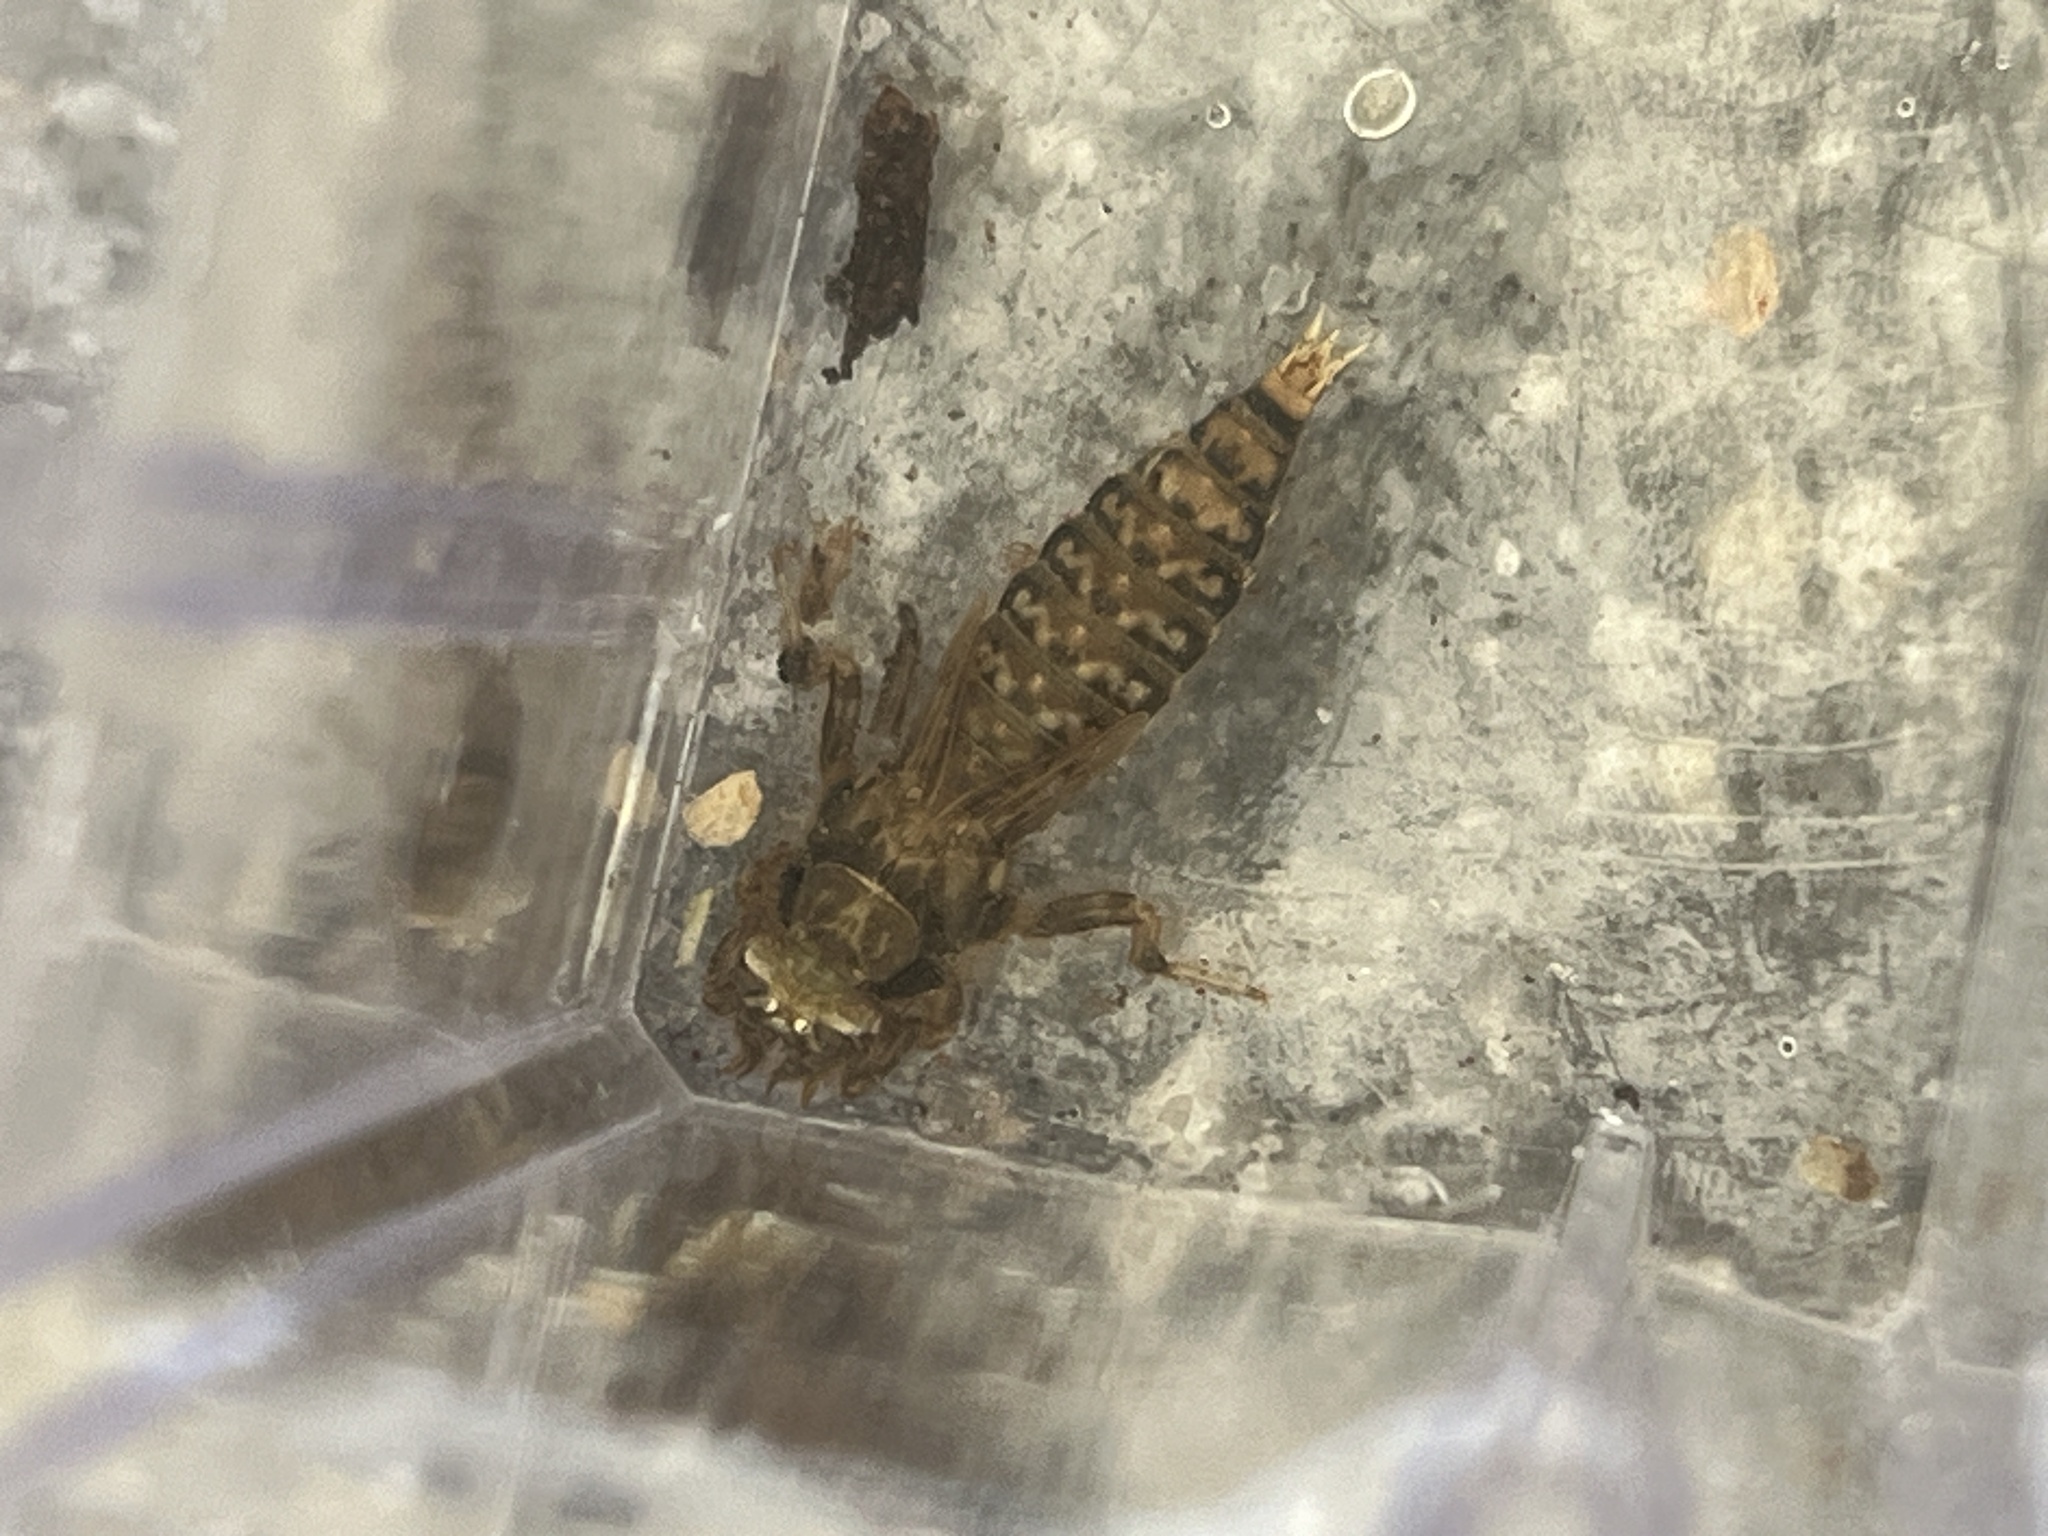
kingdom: Animalia
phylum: Arthropoda
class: Insecta
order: Odonata
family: Gomphidae
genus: Progomphus
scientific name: Progomphus obscurus
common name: Common sanddragon
